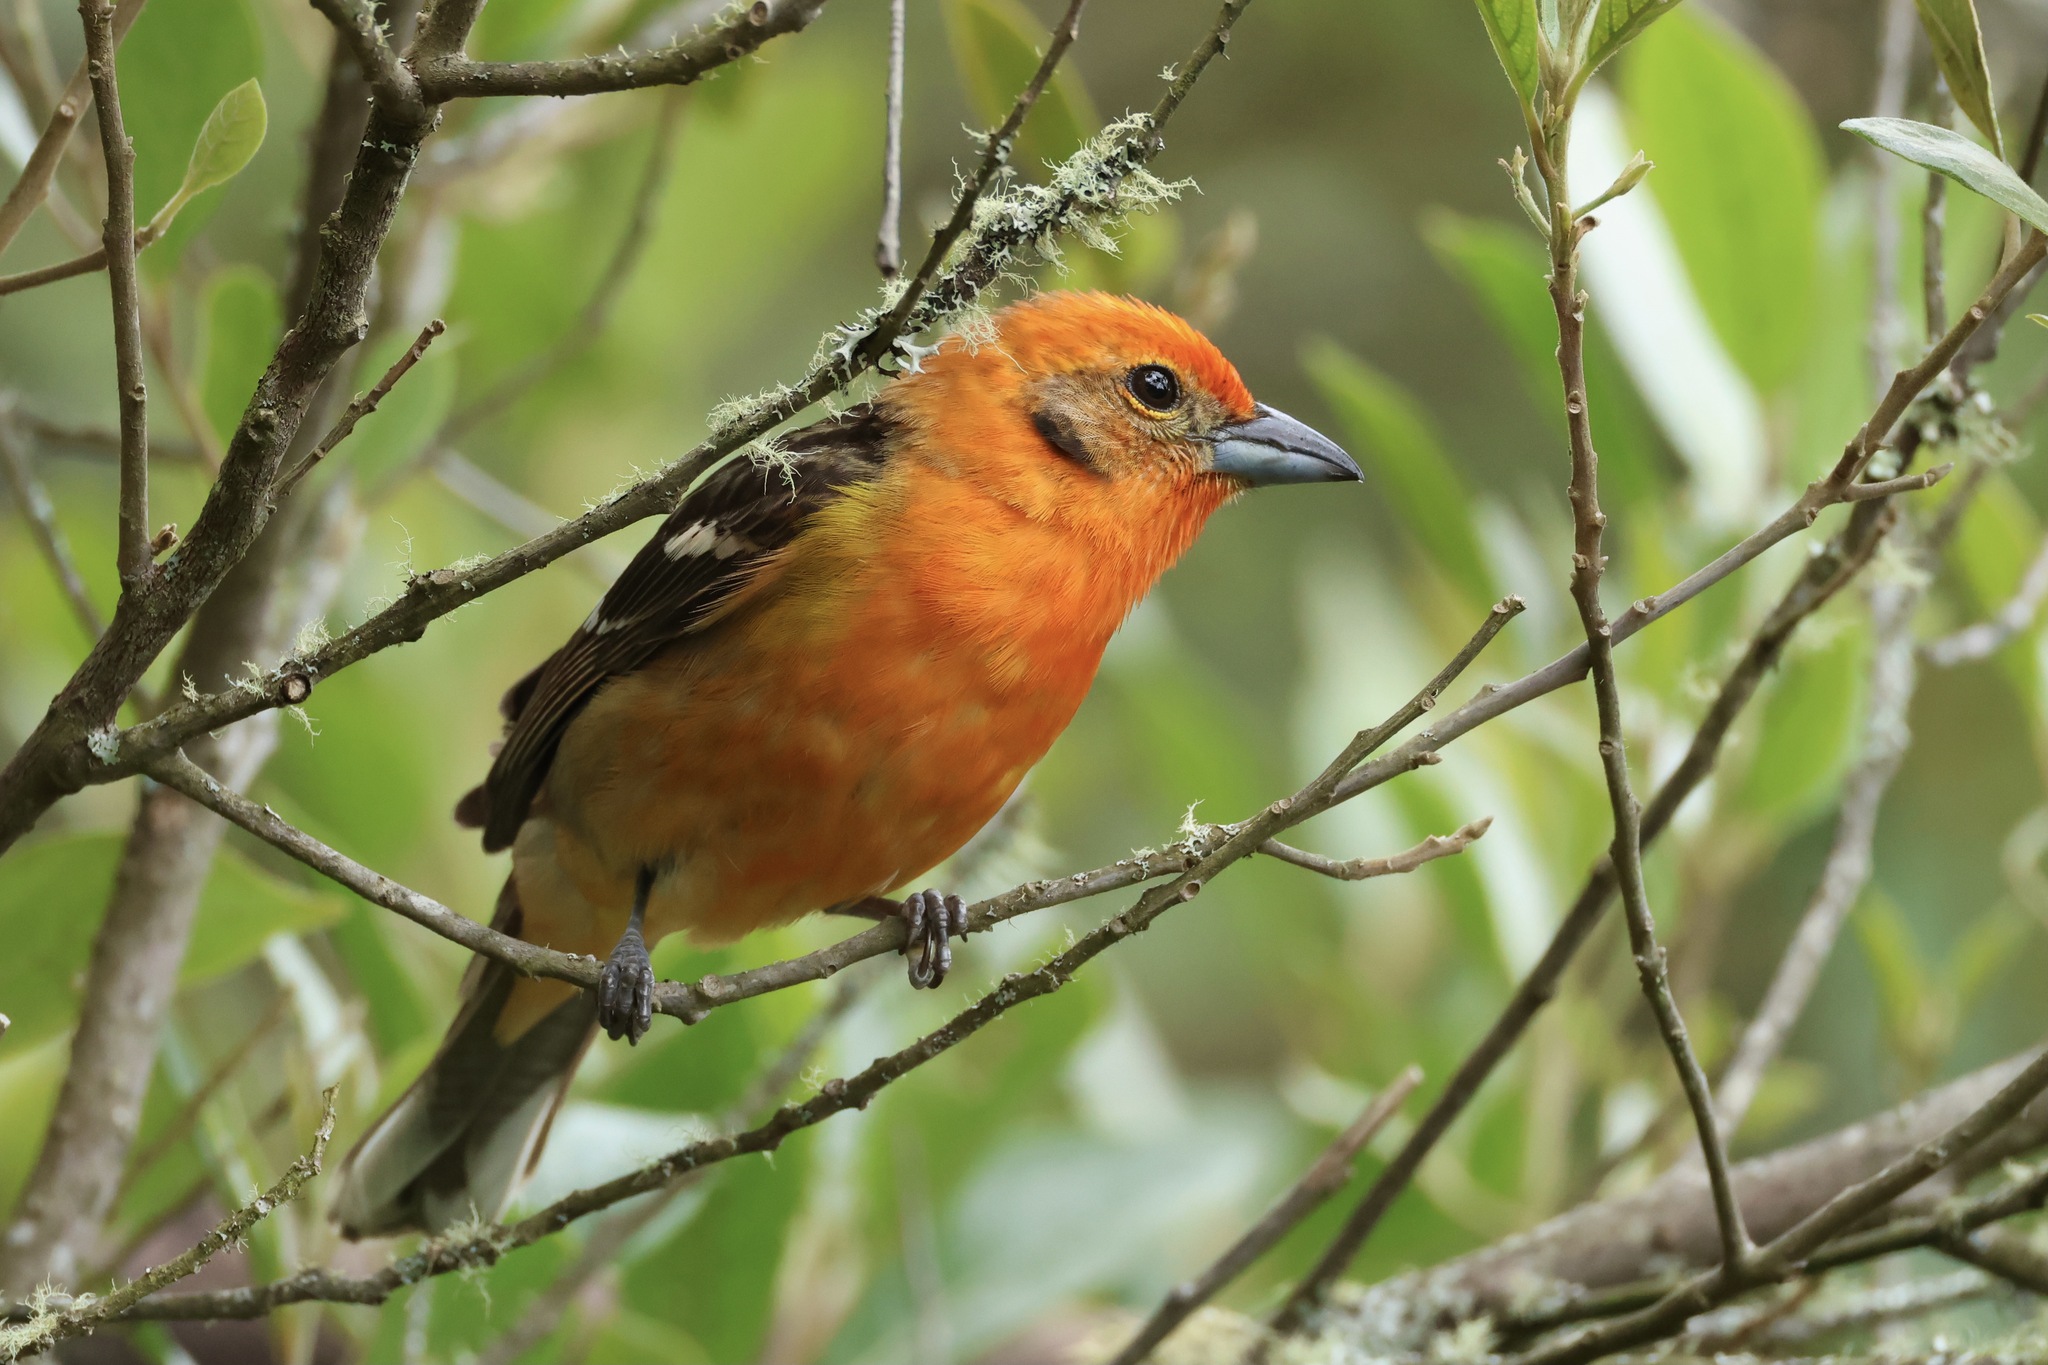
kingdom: Animalia
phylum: Chordata
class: Aves
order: Passeriformes
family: Cardinalidae
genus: Piranga
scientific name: Piranga bidentata
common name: Flame-colored tanager
